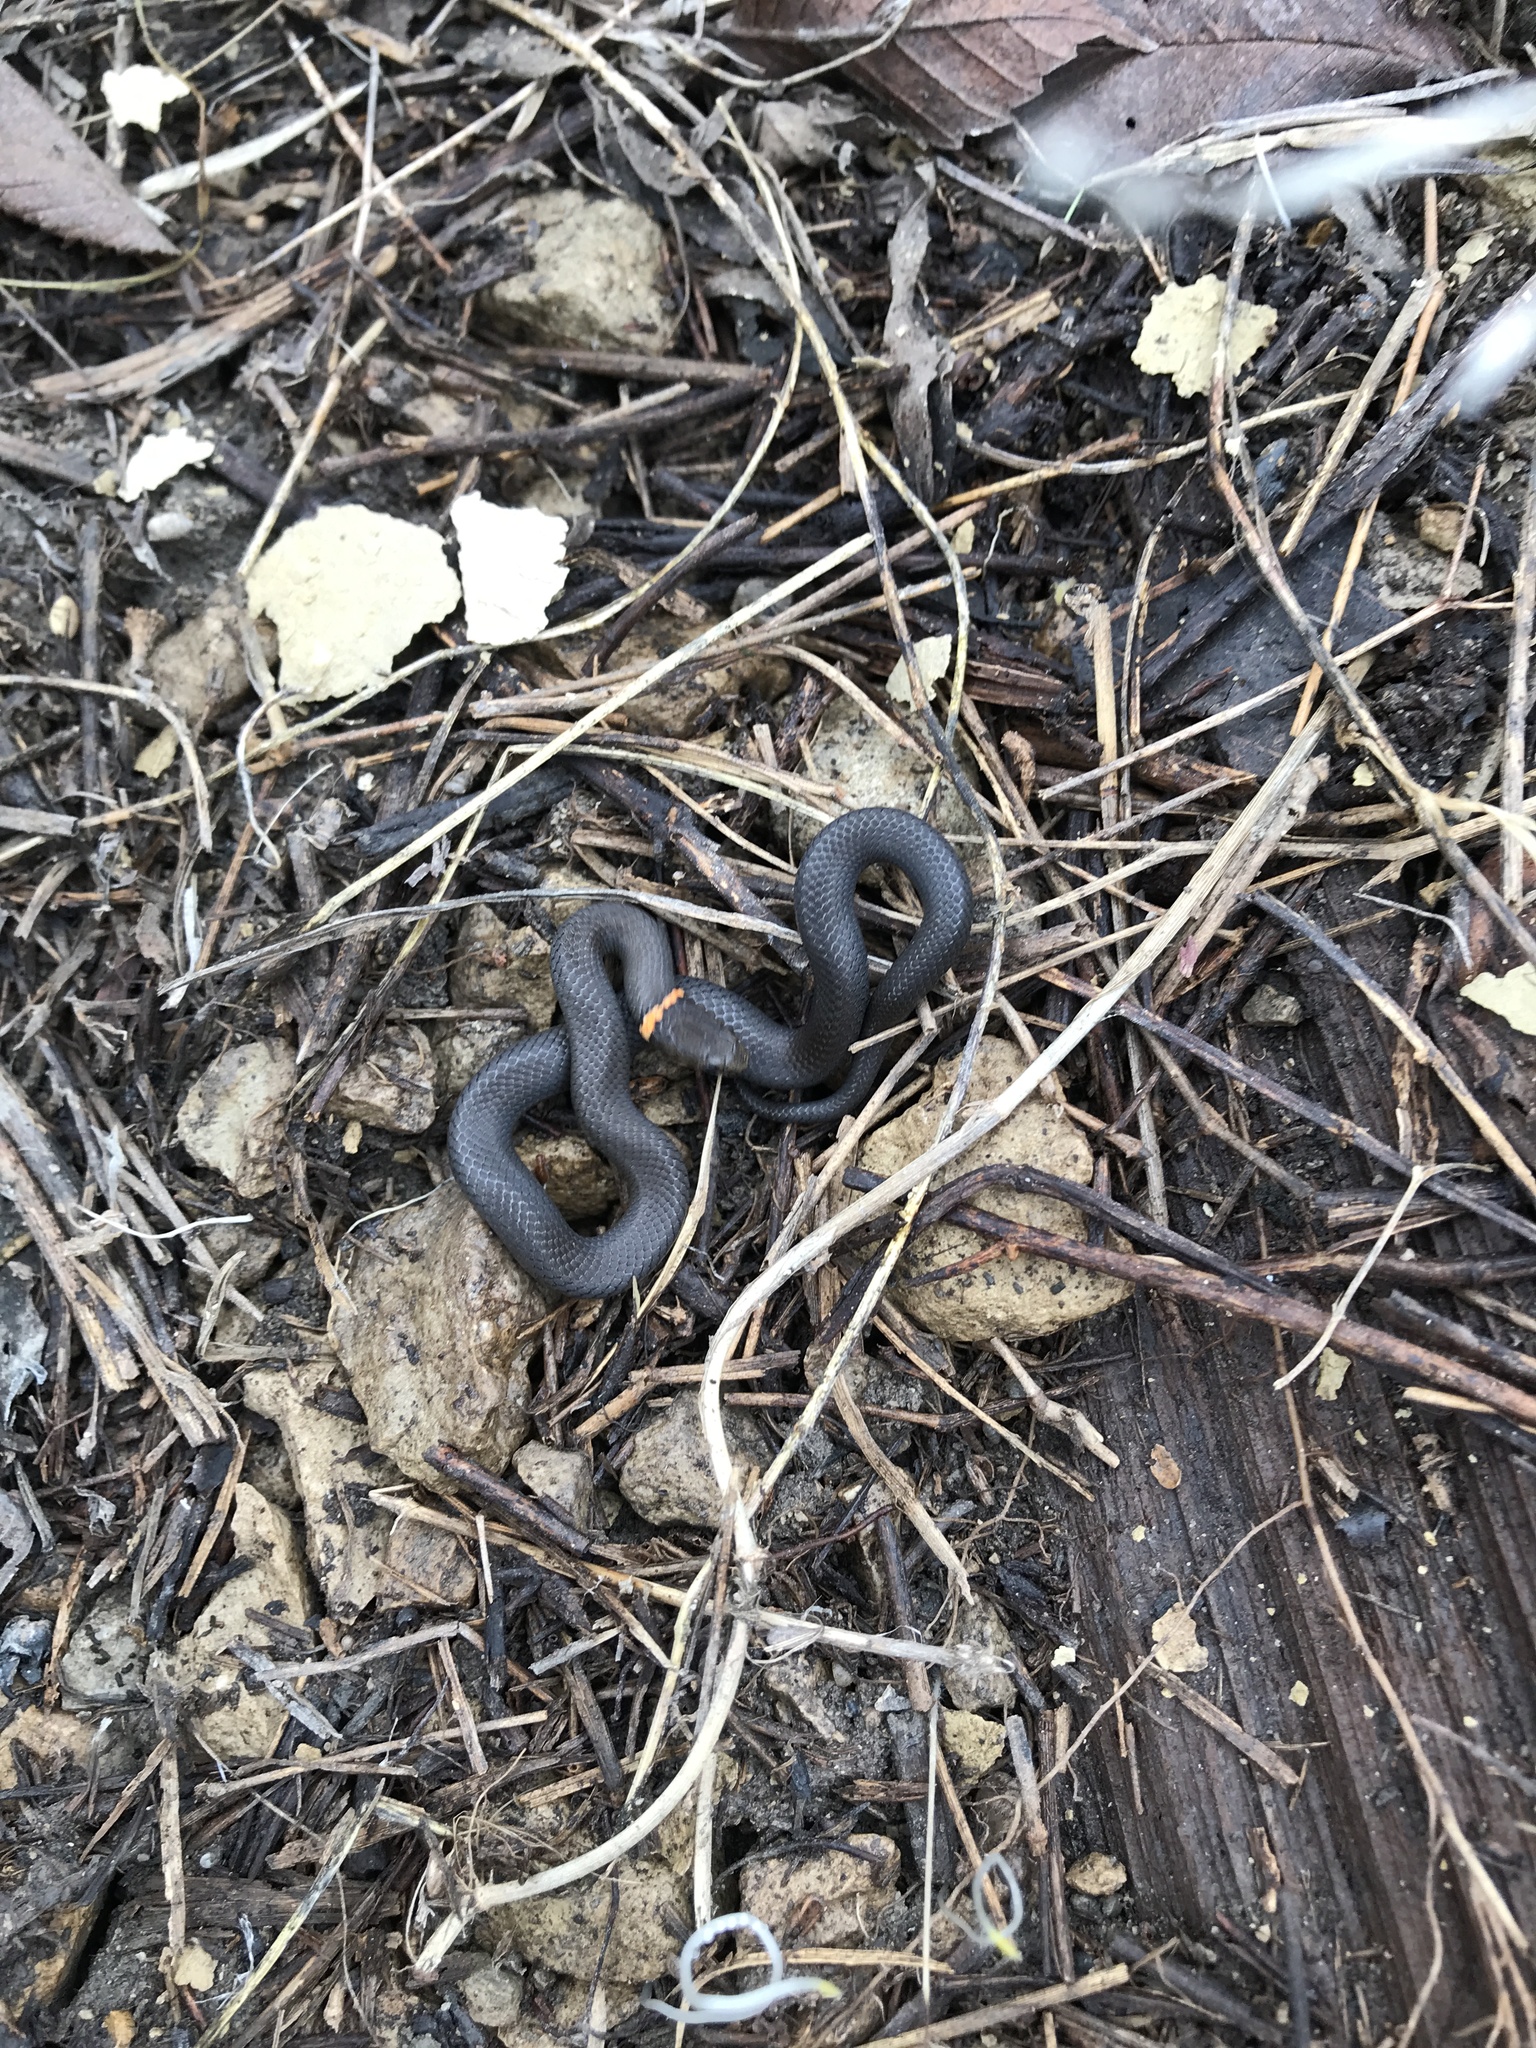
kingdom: Animalia
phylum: Chordata
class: Squamata
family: Colubridae
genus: Diadophis
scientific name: Diadophis punctatus
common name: Ringneck snake
